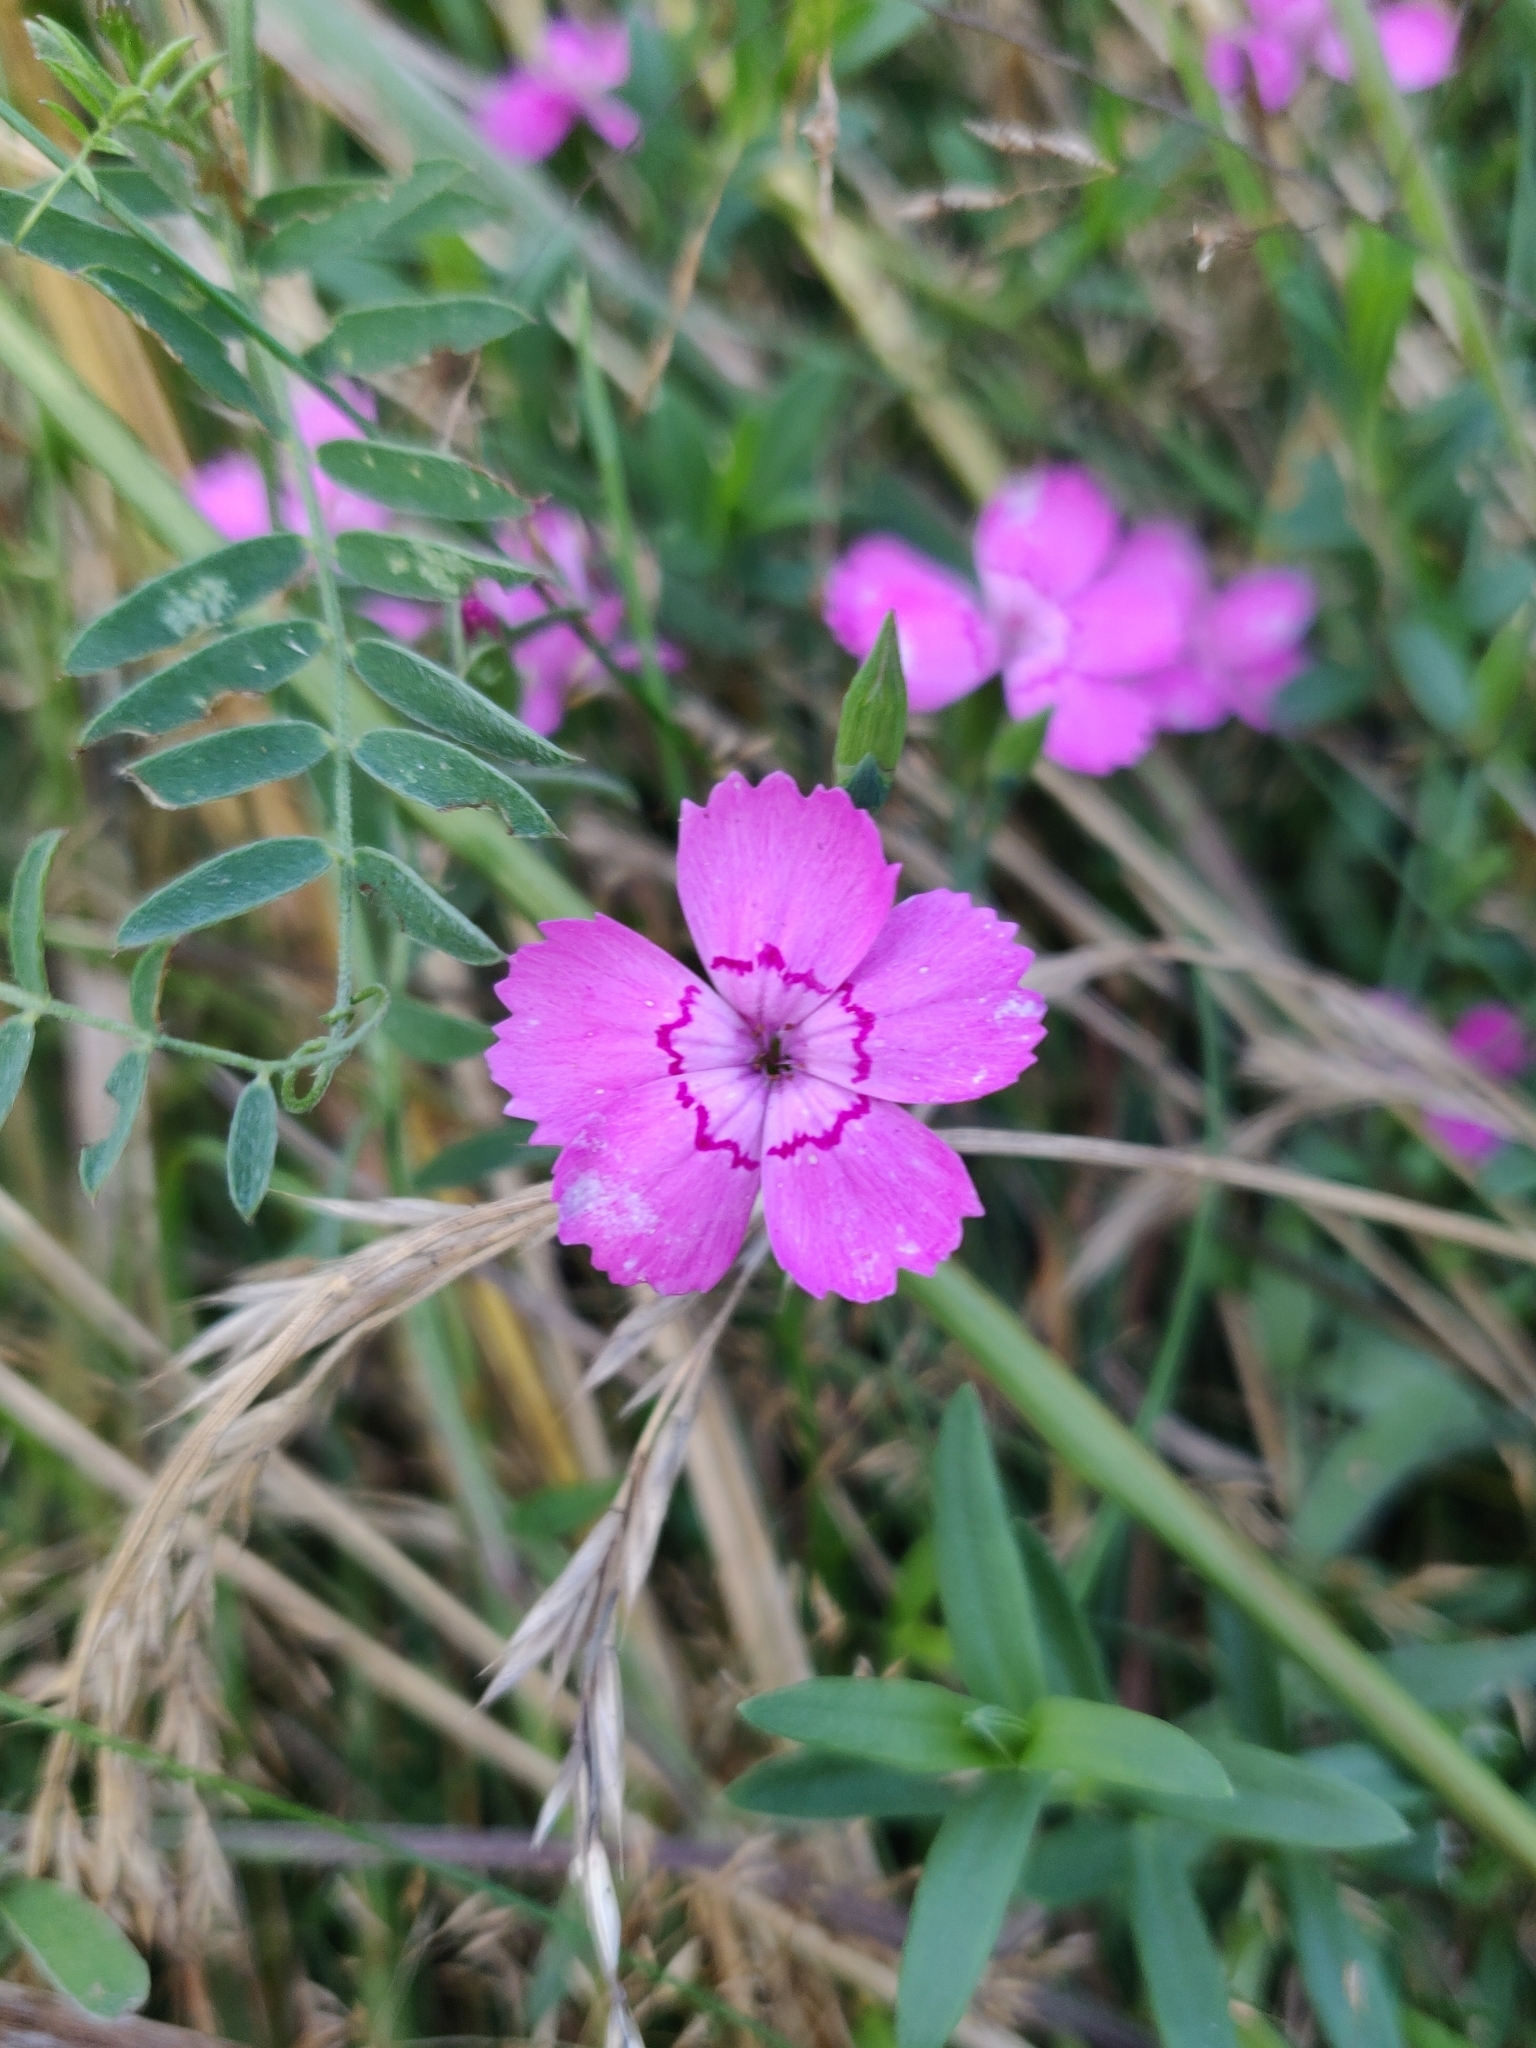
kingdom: Plantae
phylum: Tracheophyta
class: Magnoliopsida
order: Caryophyllales
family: Caryophyllaceae
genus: Dianthus
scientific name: Dianthus deltoides
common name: Maiden pink
